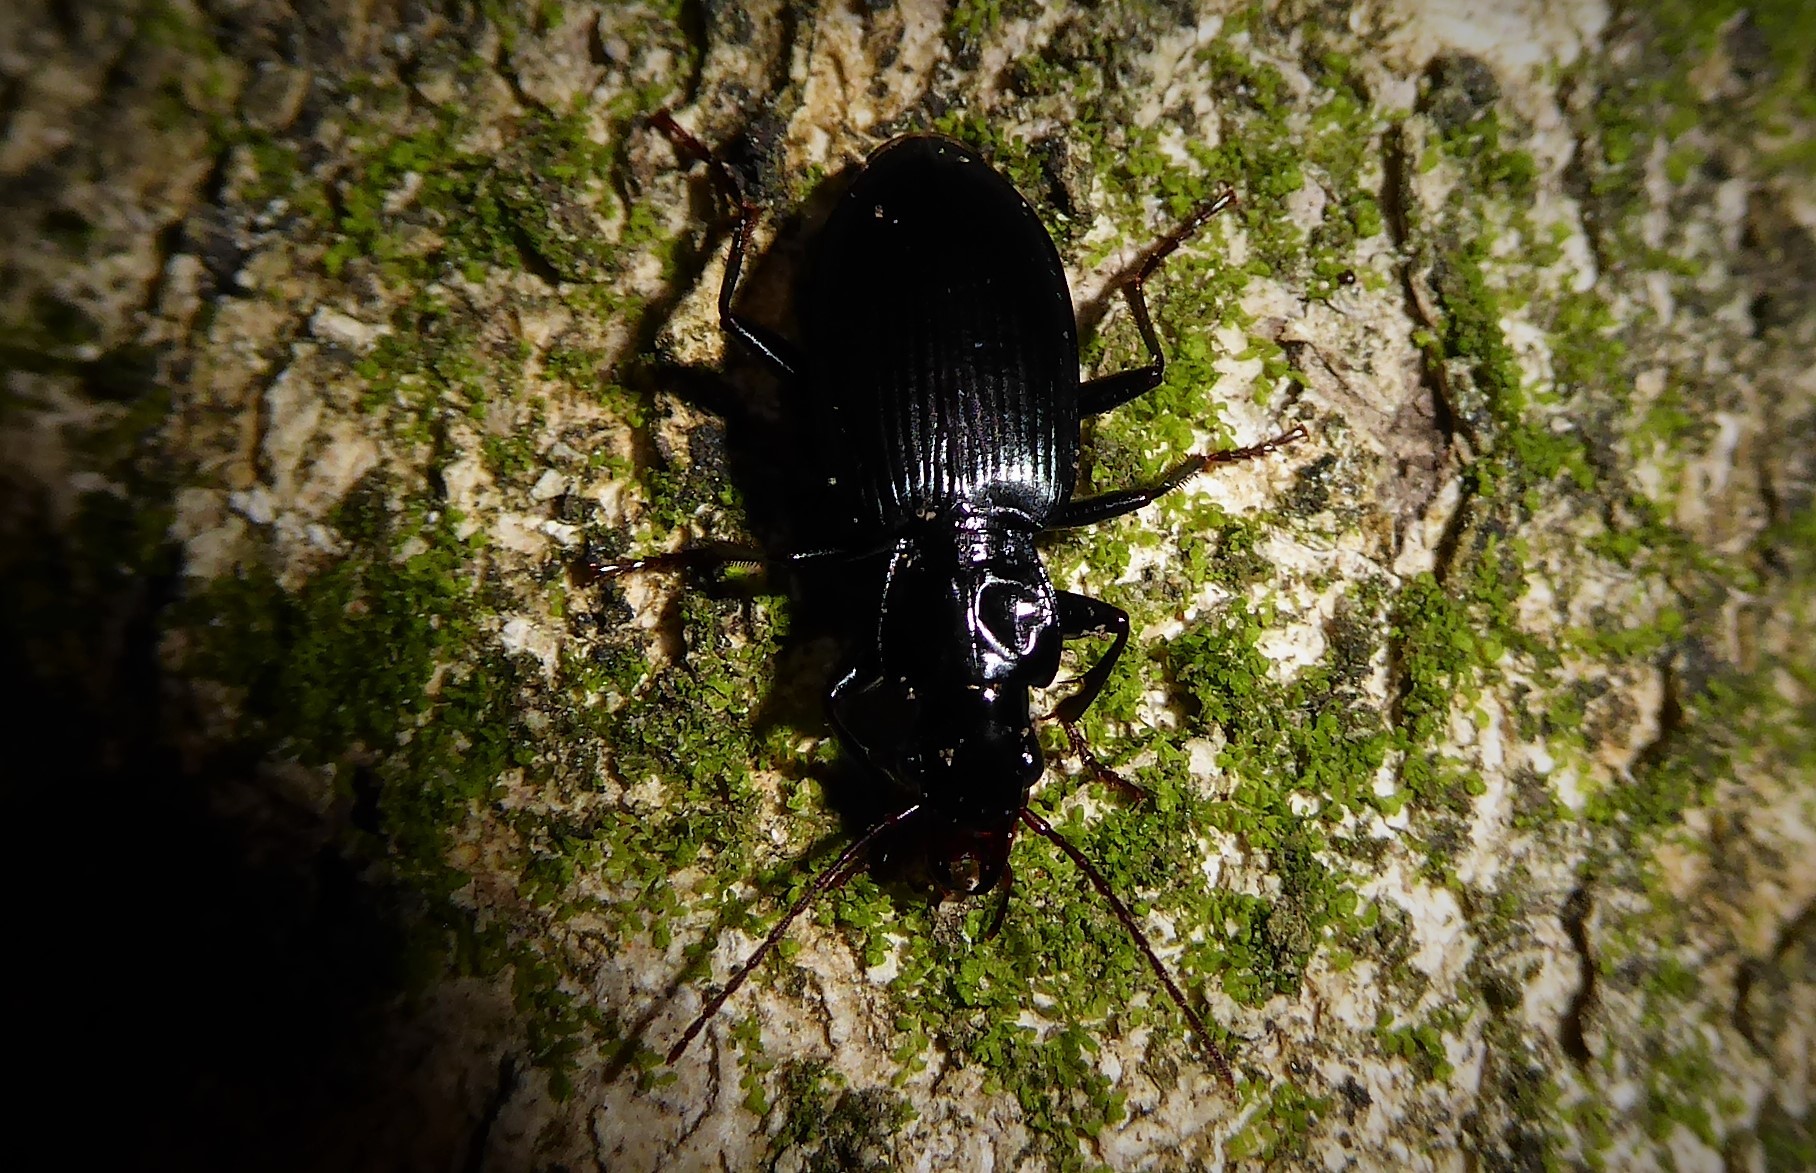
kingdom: Animalia
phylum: Arthropoda
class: Insecta
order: Coleoptera
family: Carabidae
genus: Laemostenus
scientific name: Laemostenus complanatus
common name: Cosmopolitan ground beetle
